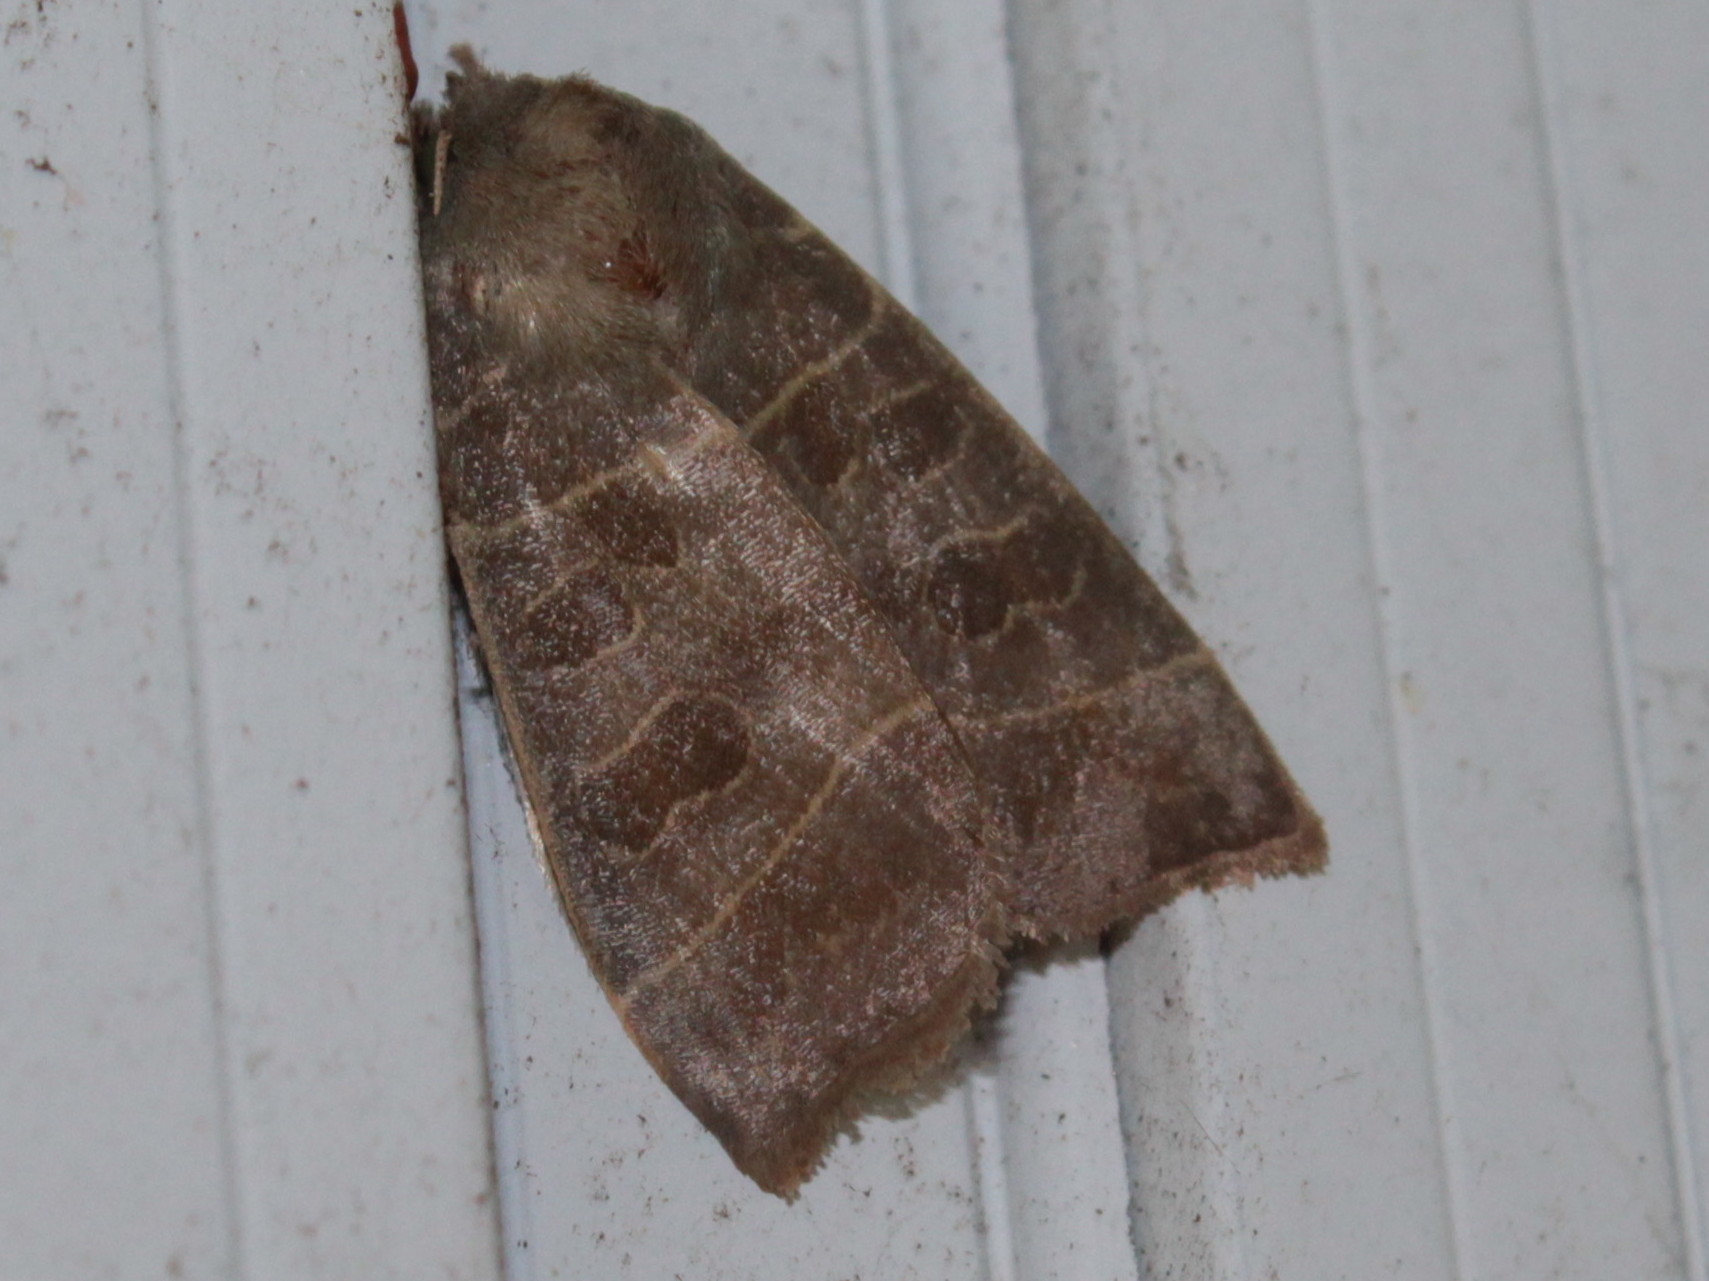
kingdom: Animalia
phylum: Arthropoda
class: Insecta
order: Lepidoptera
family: Noctuidae
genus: Ipimorpha
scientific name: Ipimorpha pleonectusa
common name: Even-lined sallow
